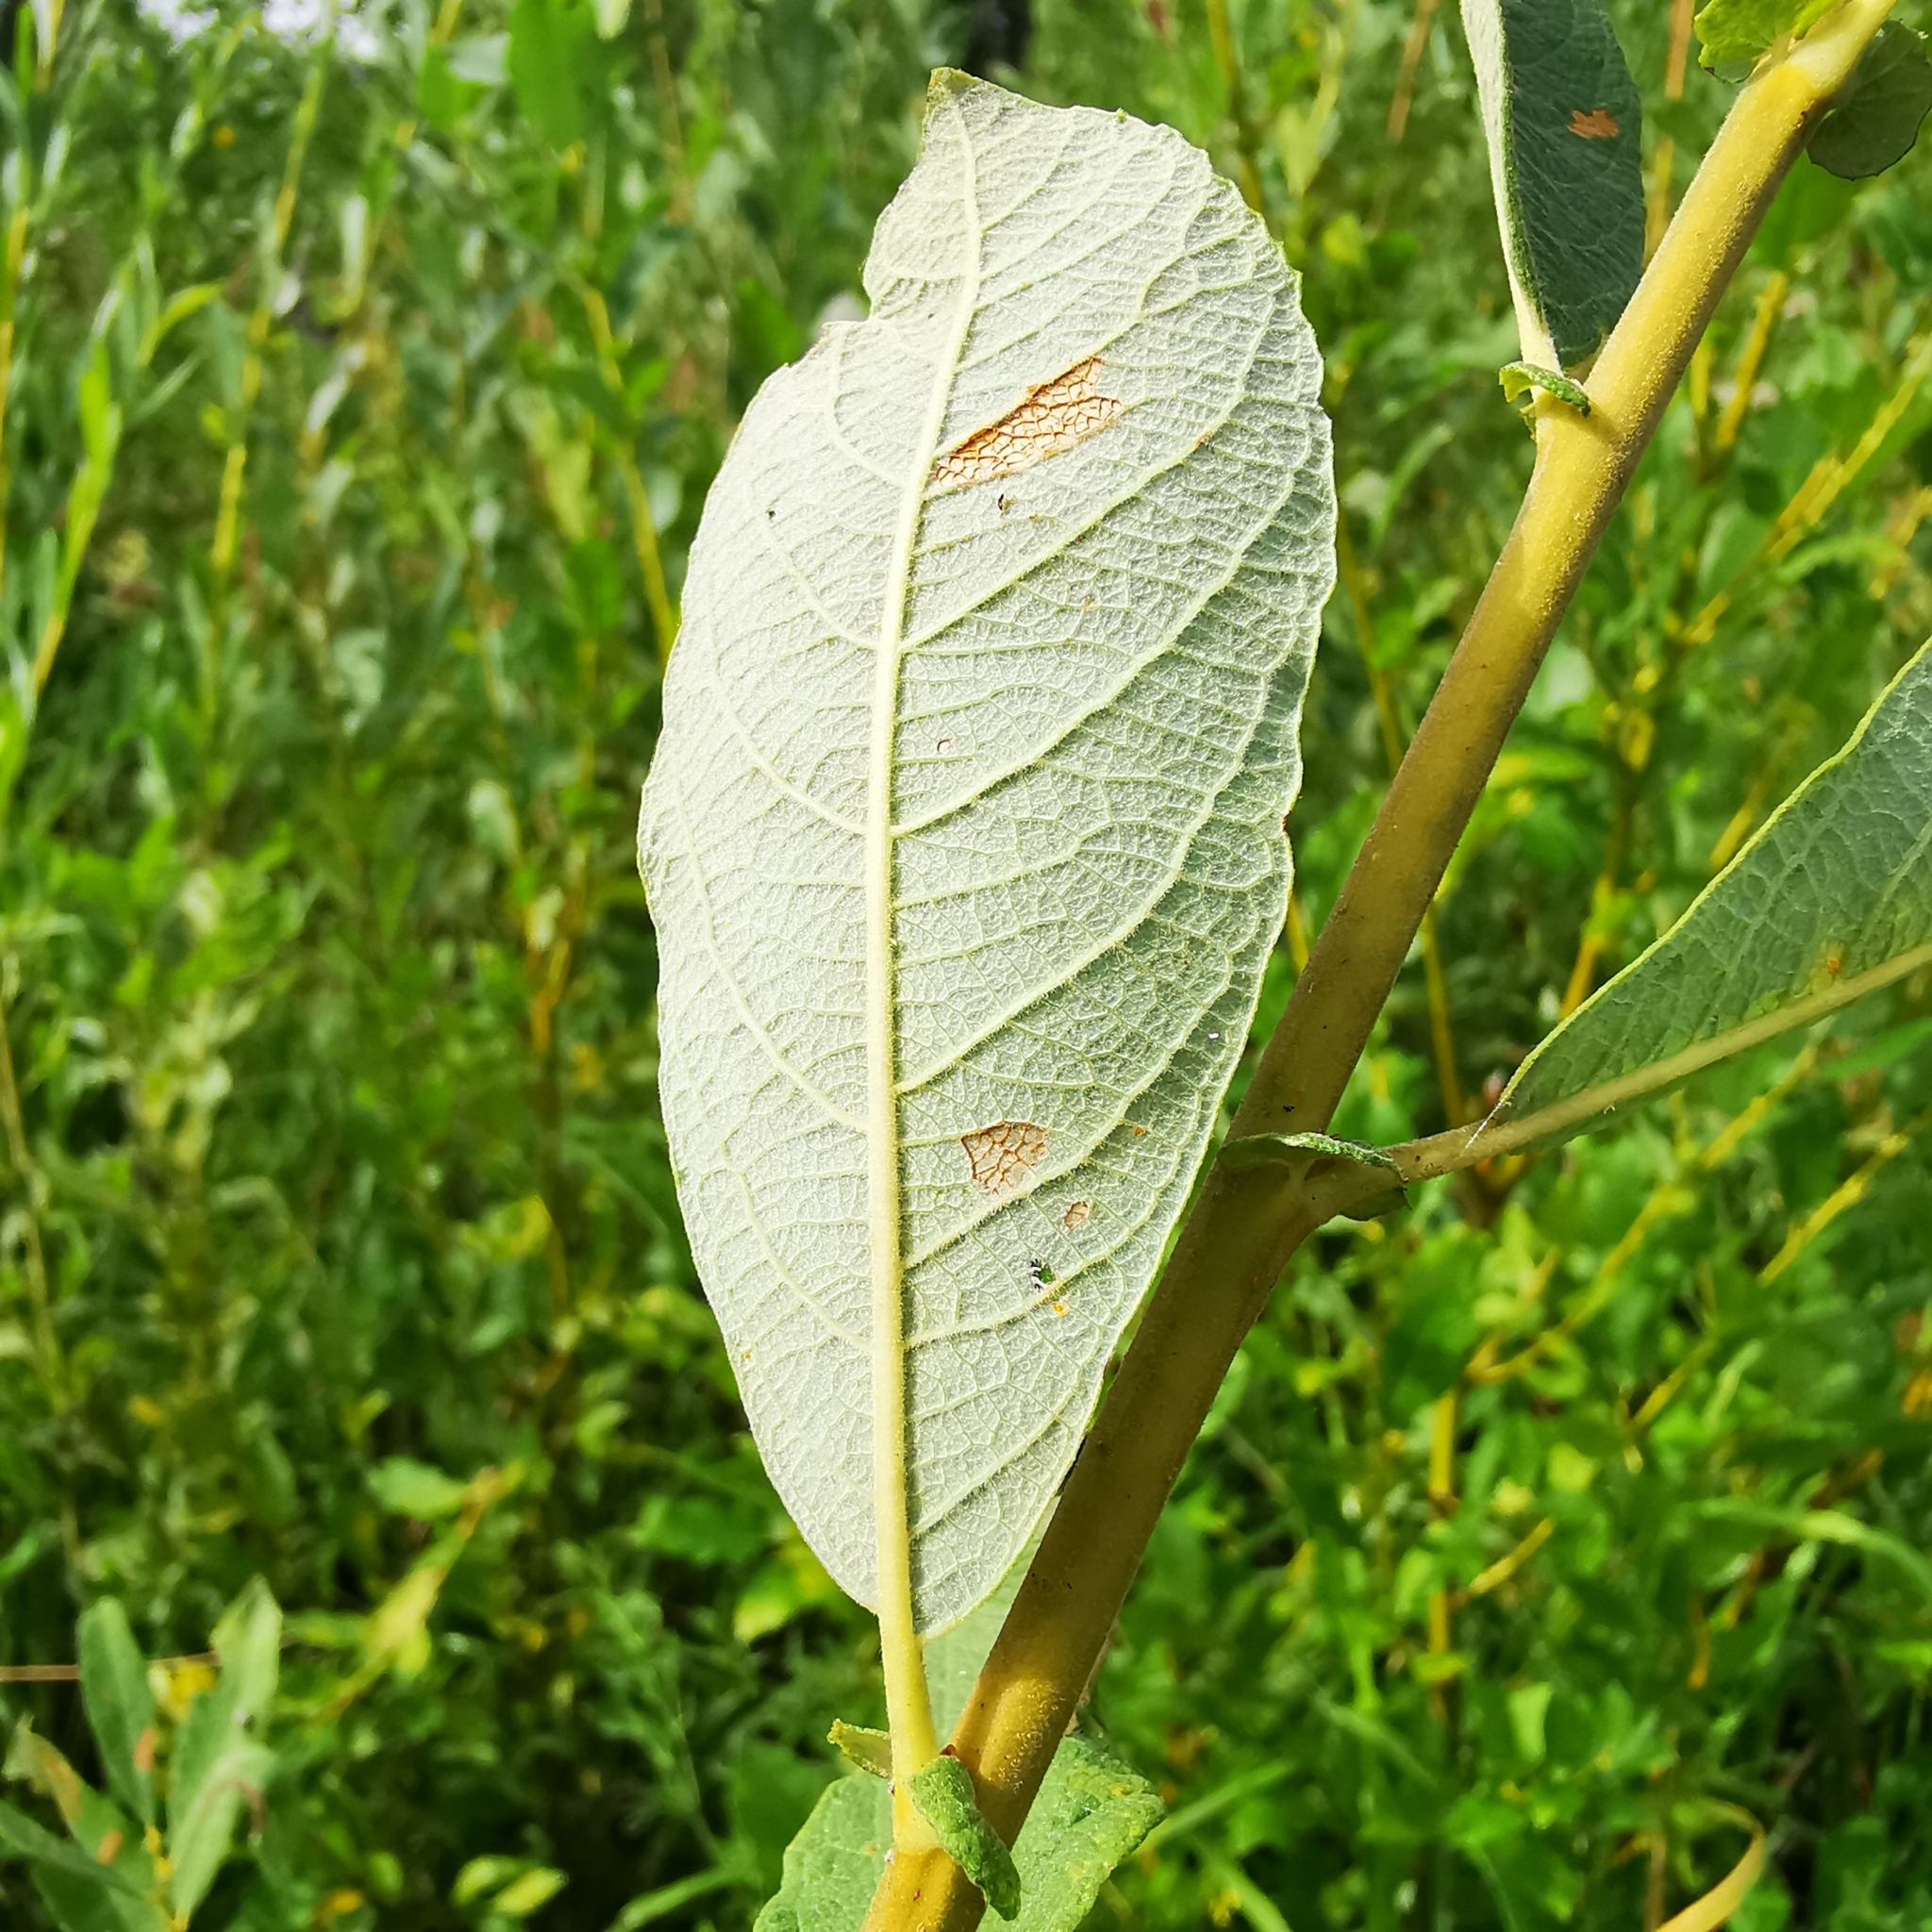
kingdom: Plantae
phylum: Tracheophyta
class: Magnoliopsida
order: Malpighiales
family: Salicaceae
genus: Salix
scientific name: Salix cinerea
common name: Common sallow
